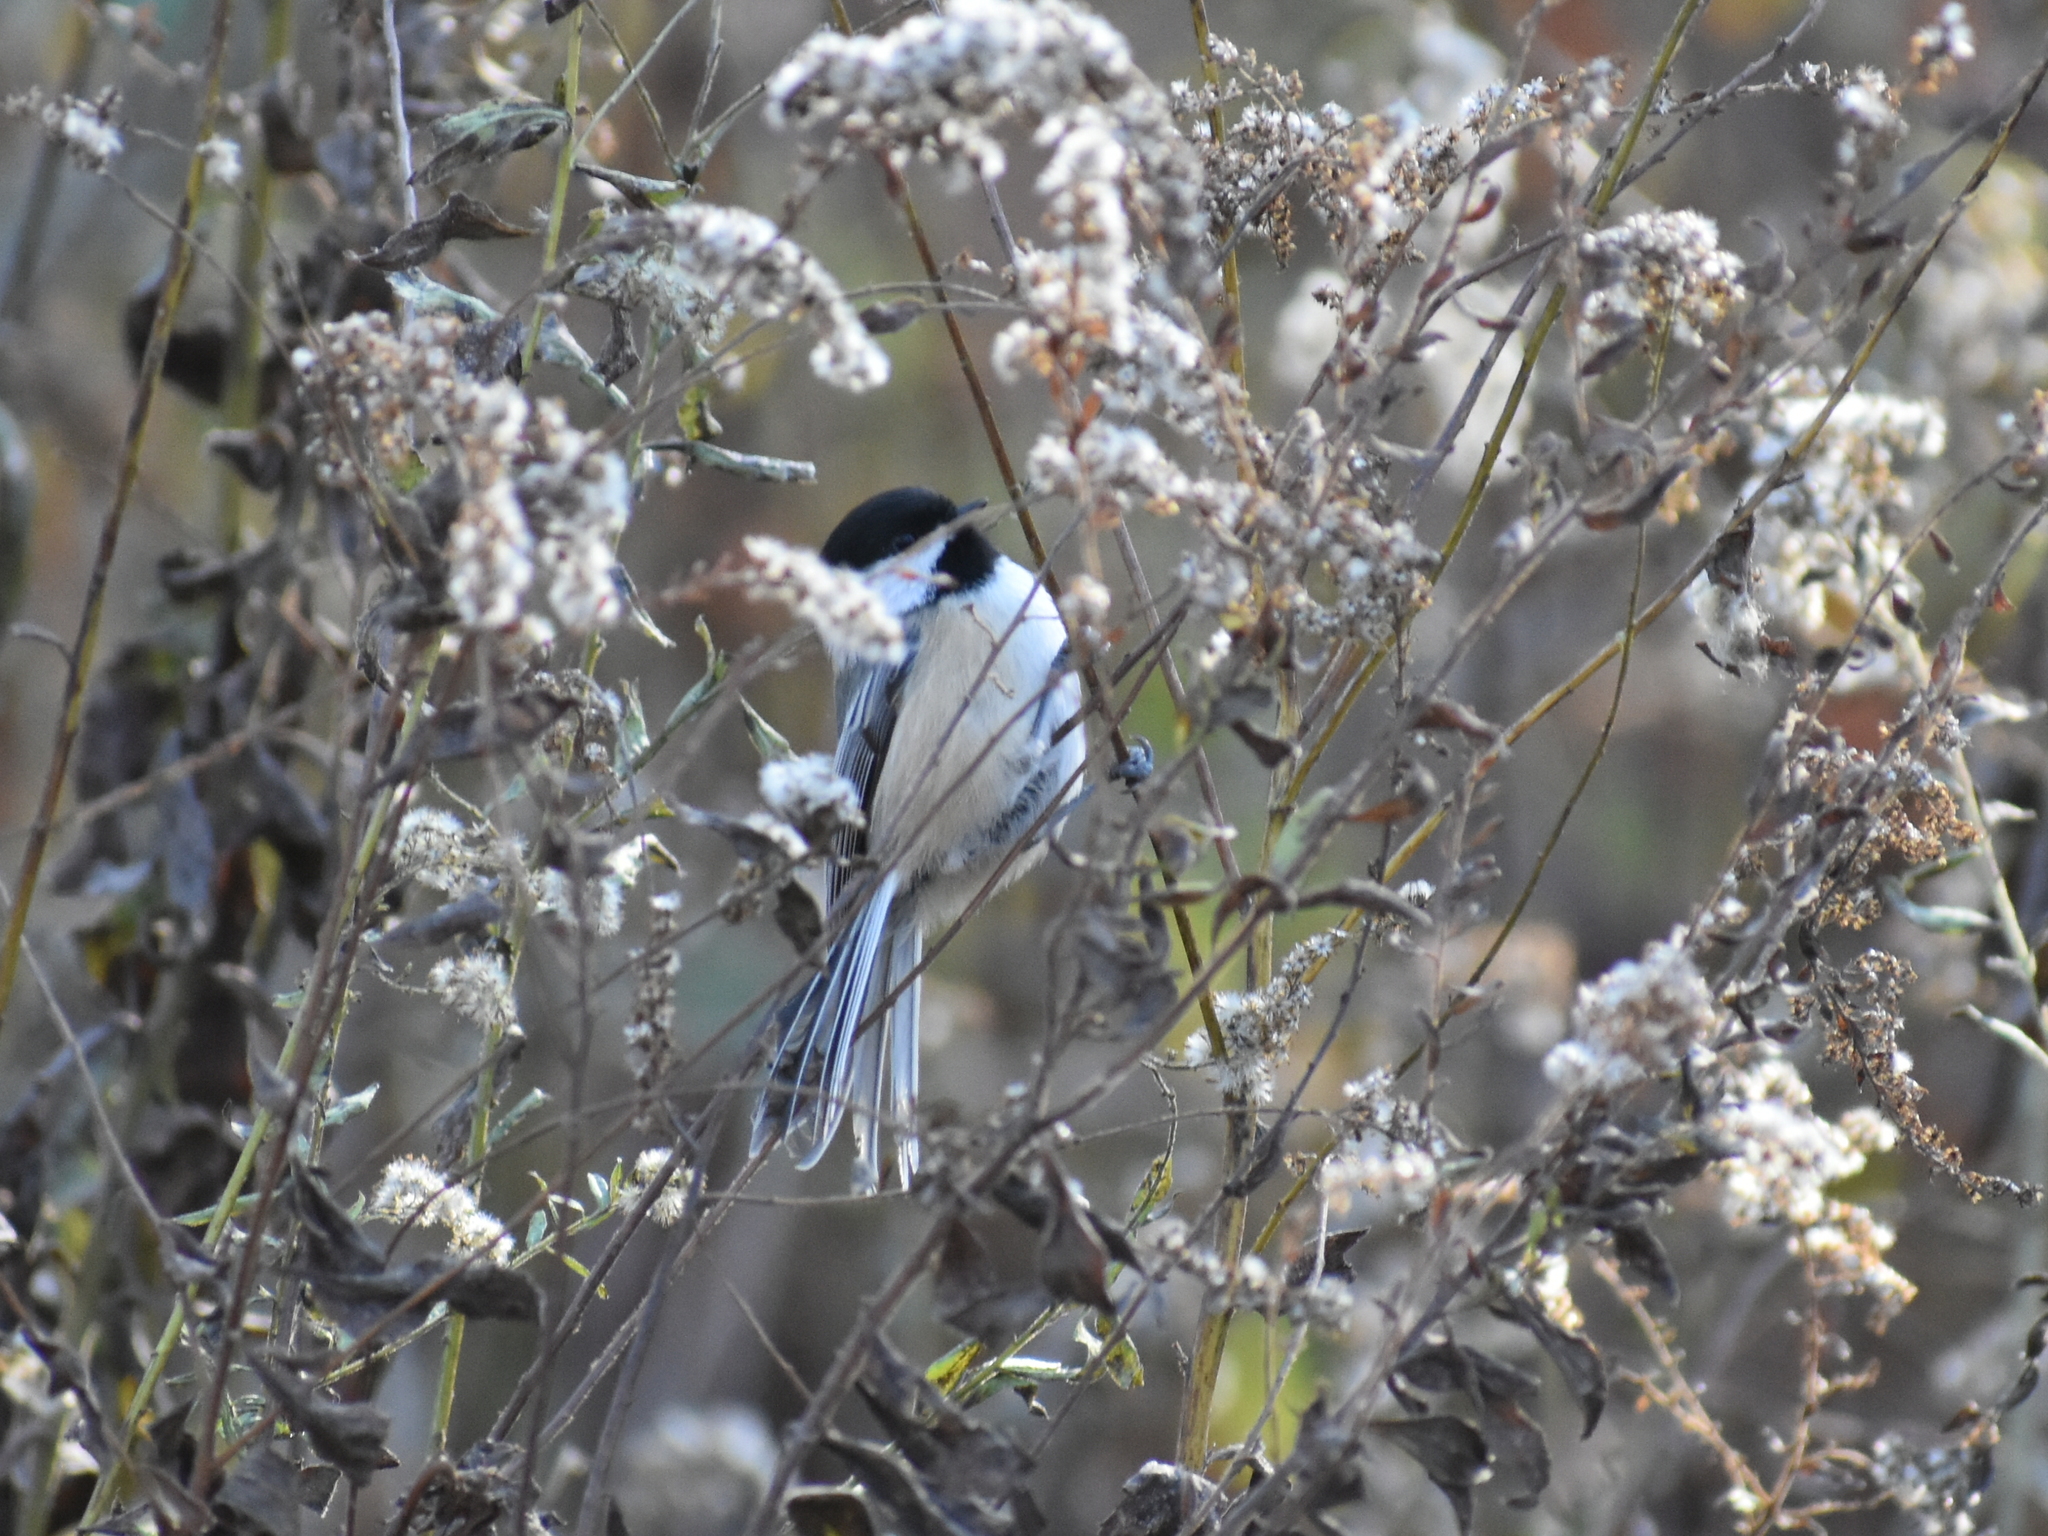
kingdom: Animalia
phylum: Chordata
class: Aves
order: Passeriformes
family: Paridae
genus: Poecile
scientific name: Poecile atricapillus
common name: Black-capped chickadee
